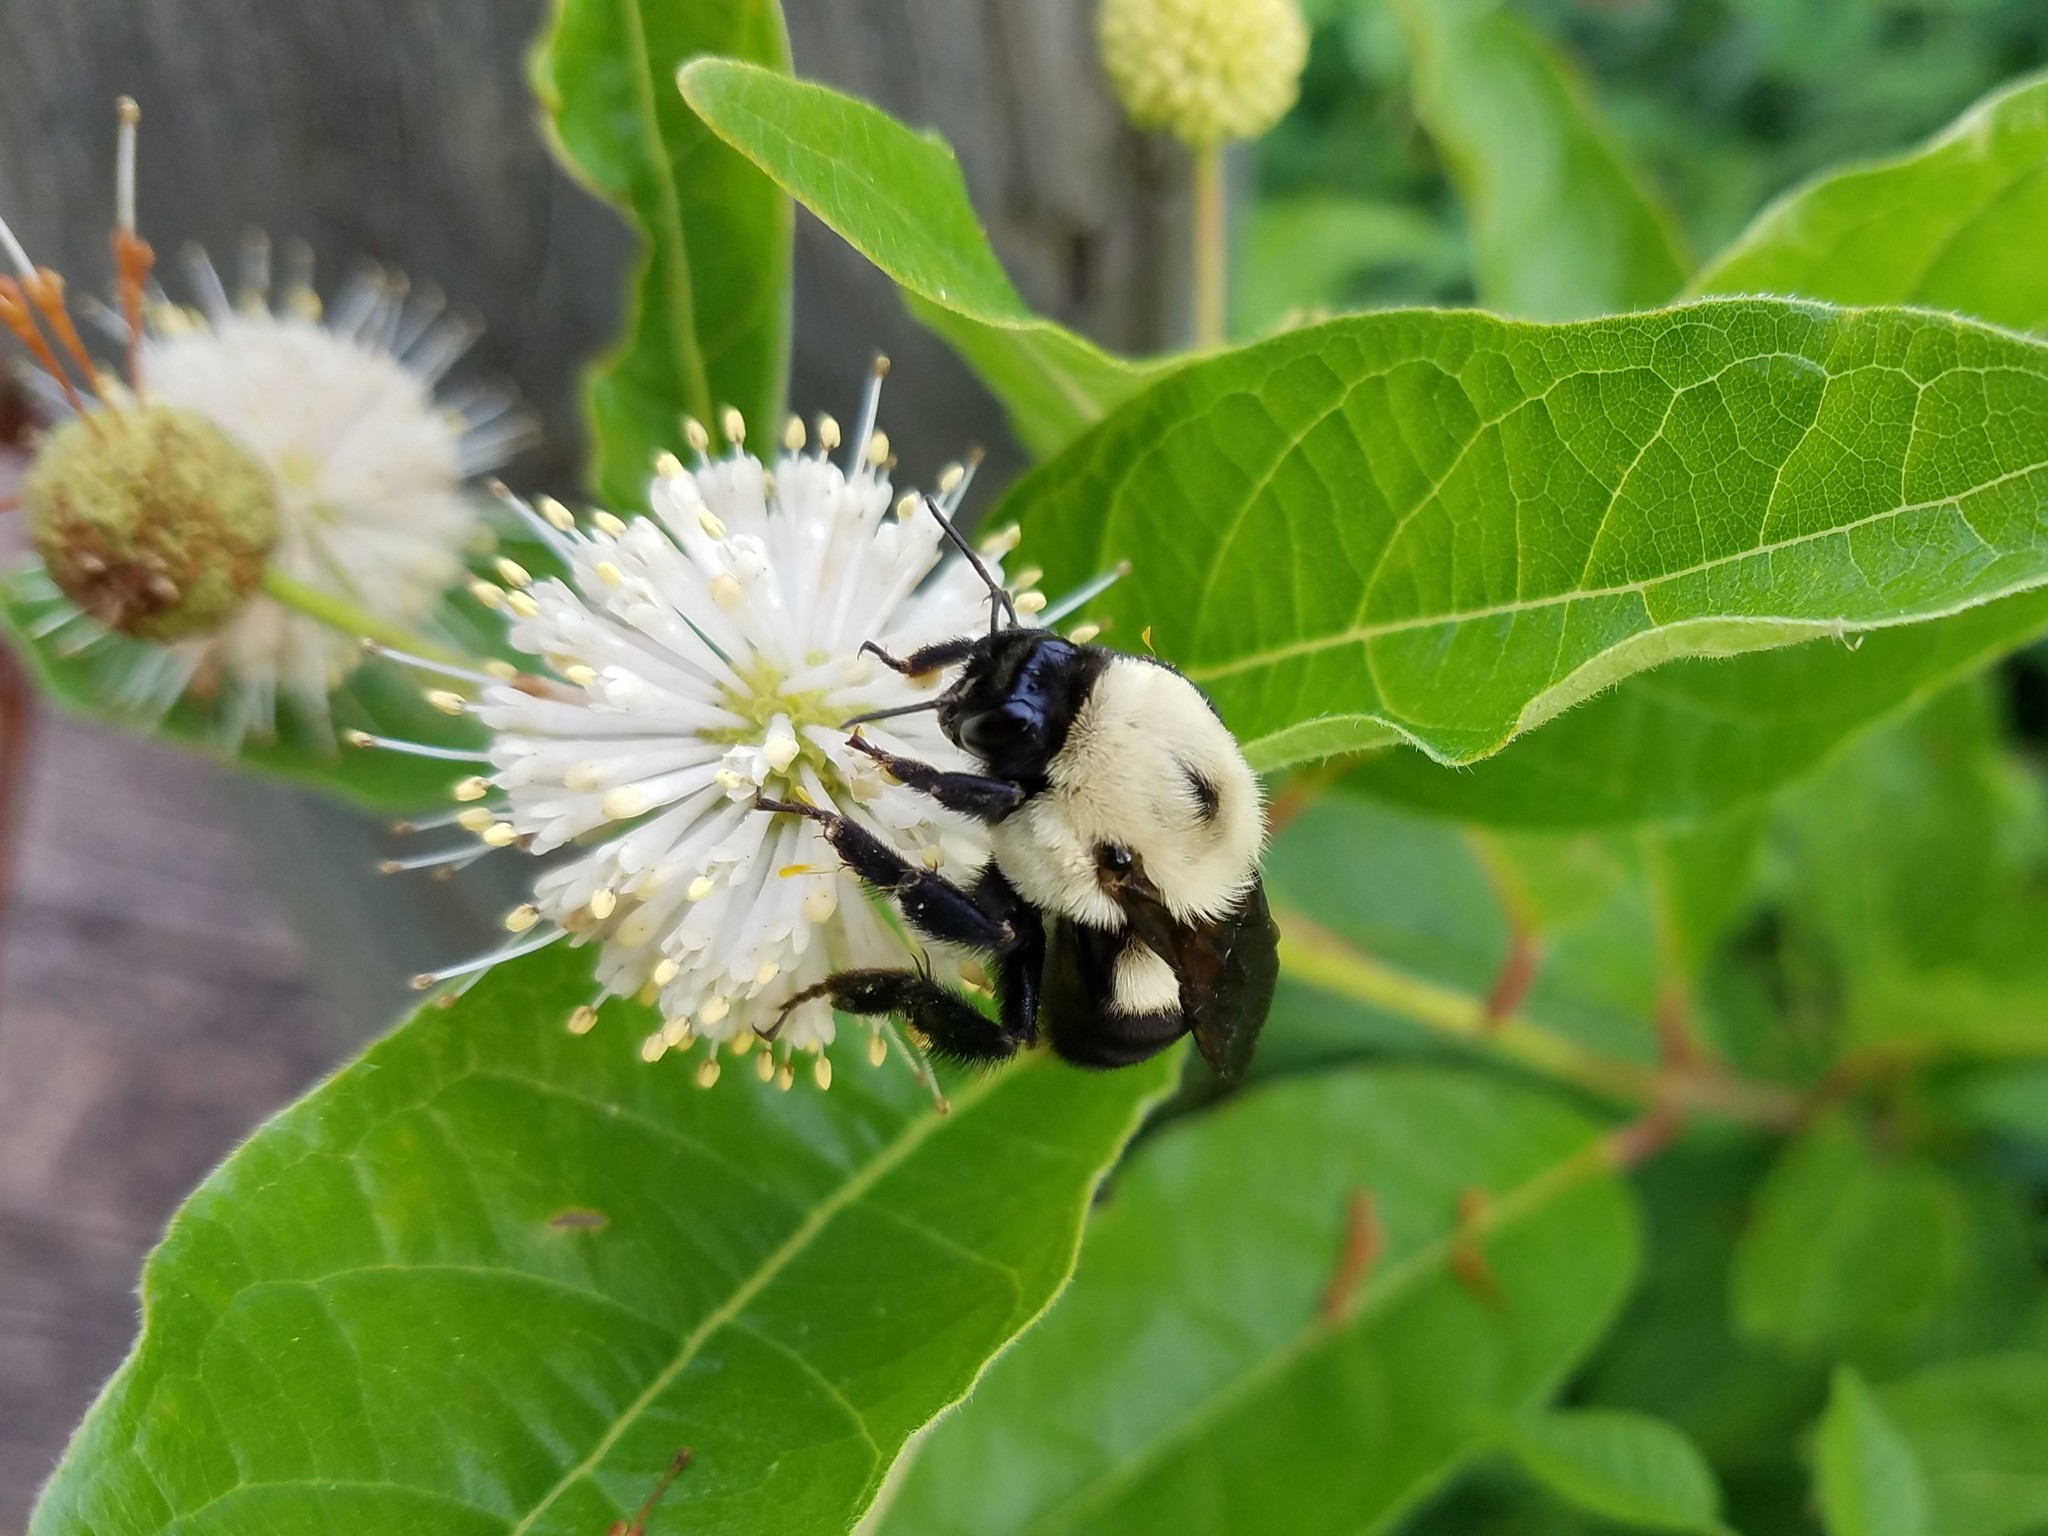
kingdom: Animalia
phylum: Arthropoda
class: Insecta
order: Hymenoptera
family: Apidae
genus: Bombus
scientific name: Bombus griseocollis
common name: Brown-belted bumble bee
